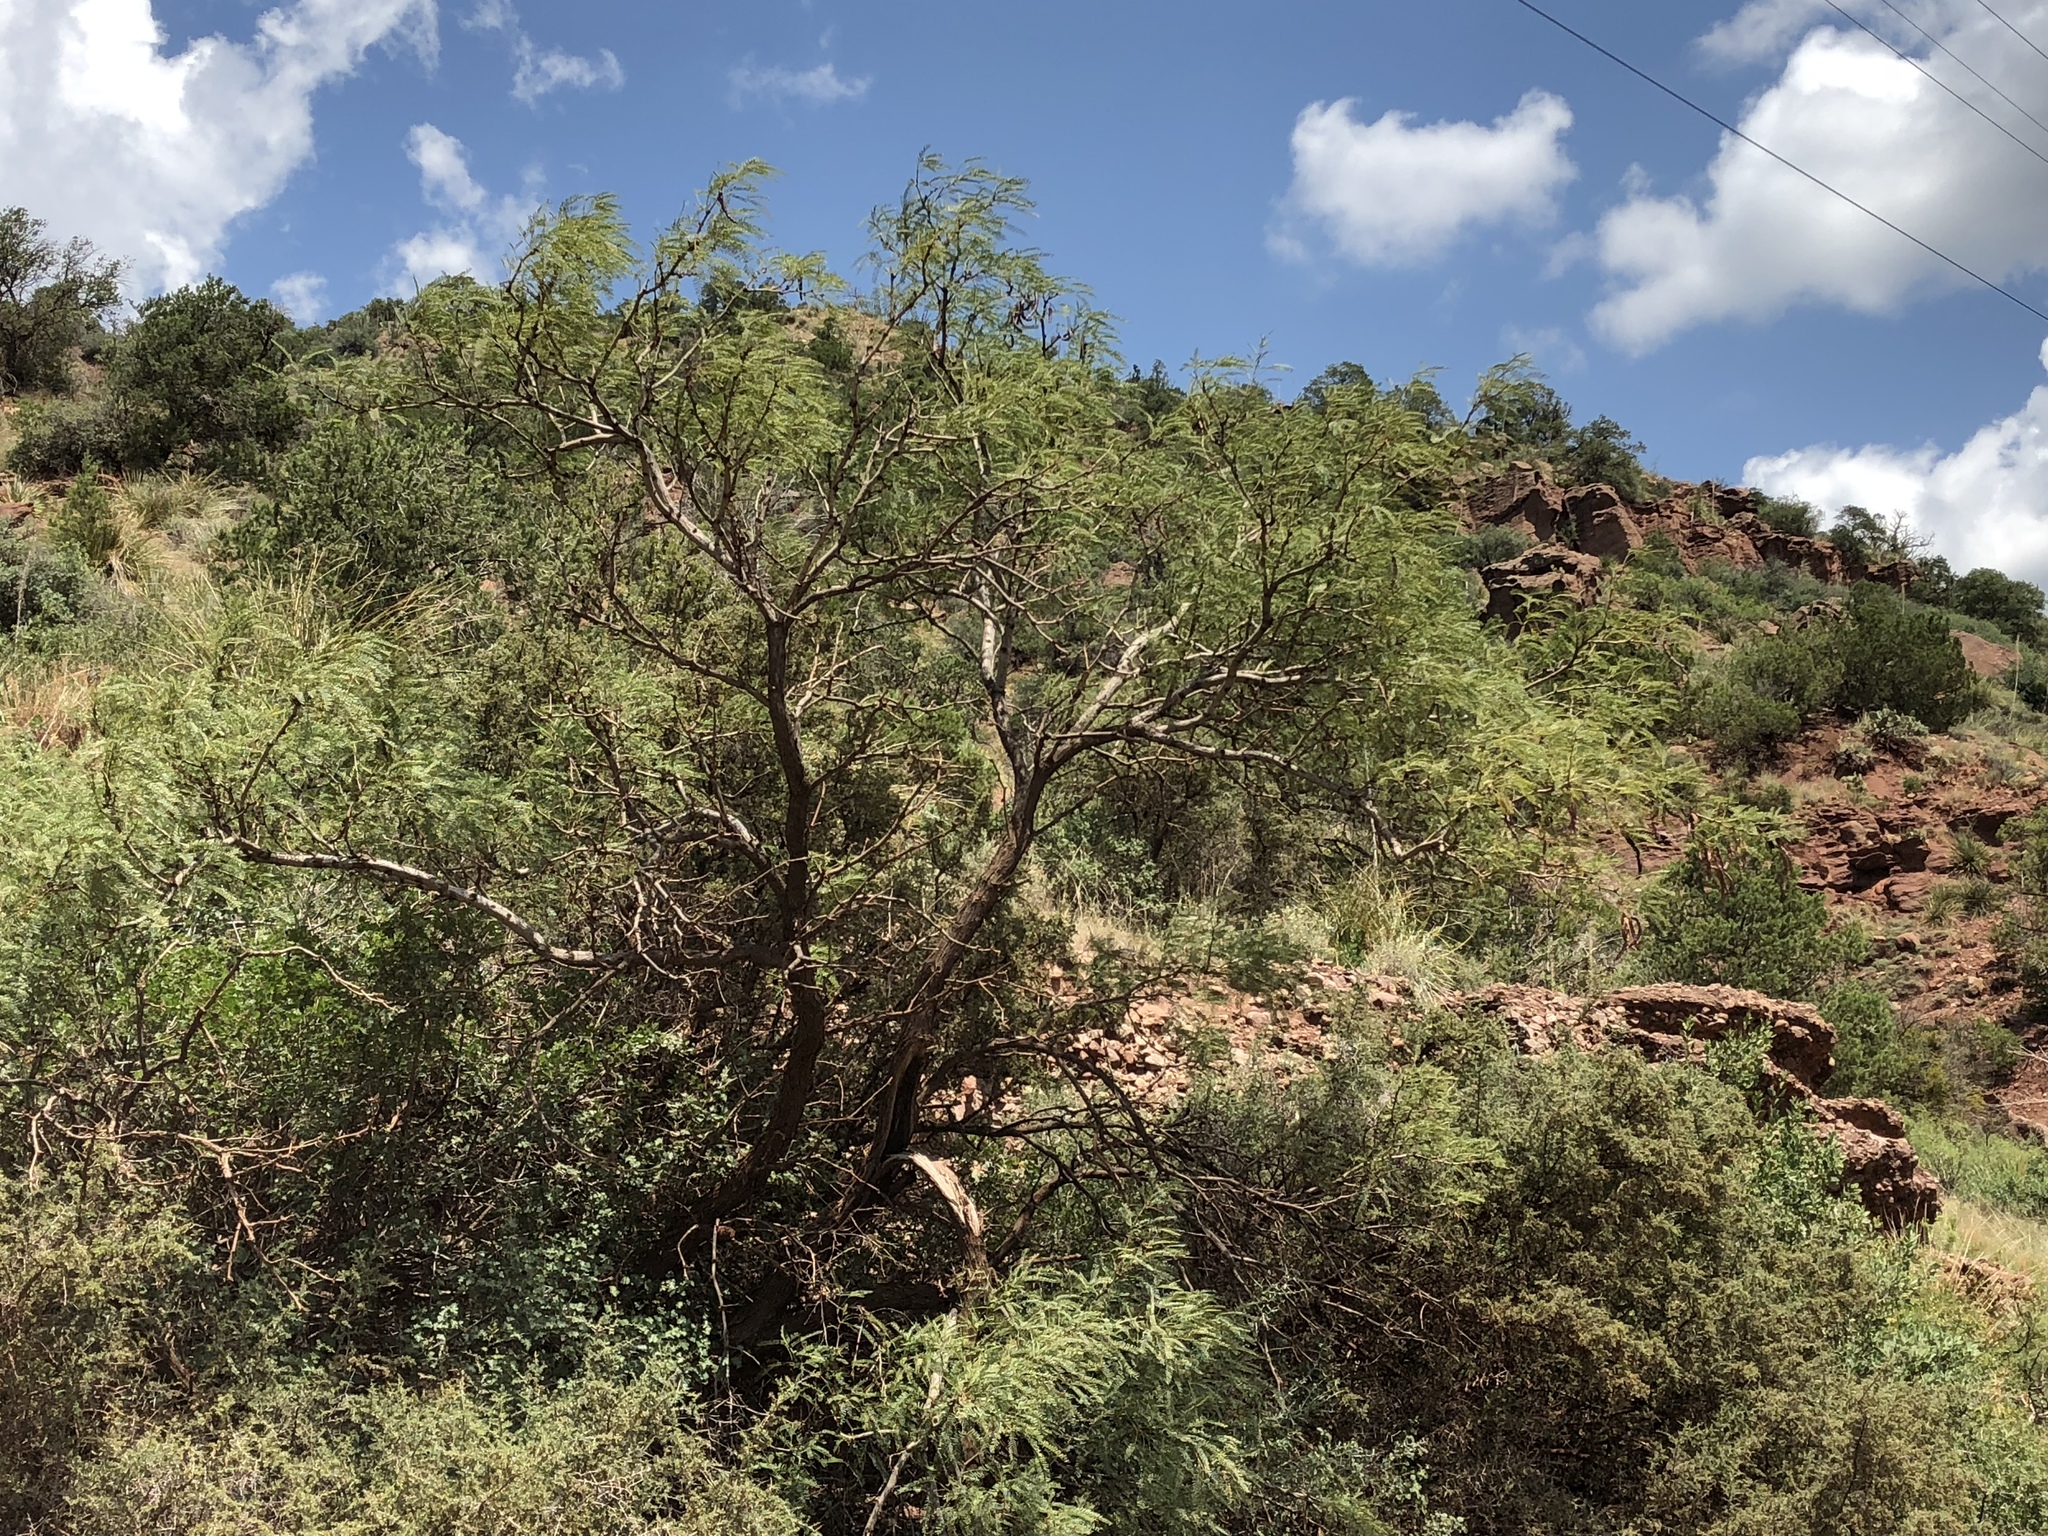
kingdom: Plantae
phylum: Tracheophyta
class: Magnoliopsida
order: Fabales
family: Fabaceae
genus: Prosopis
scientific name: Prosopis glandulosa
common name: Honey mesquite
